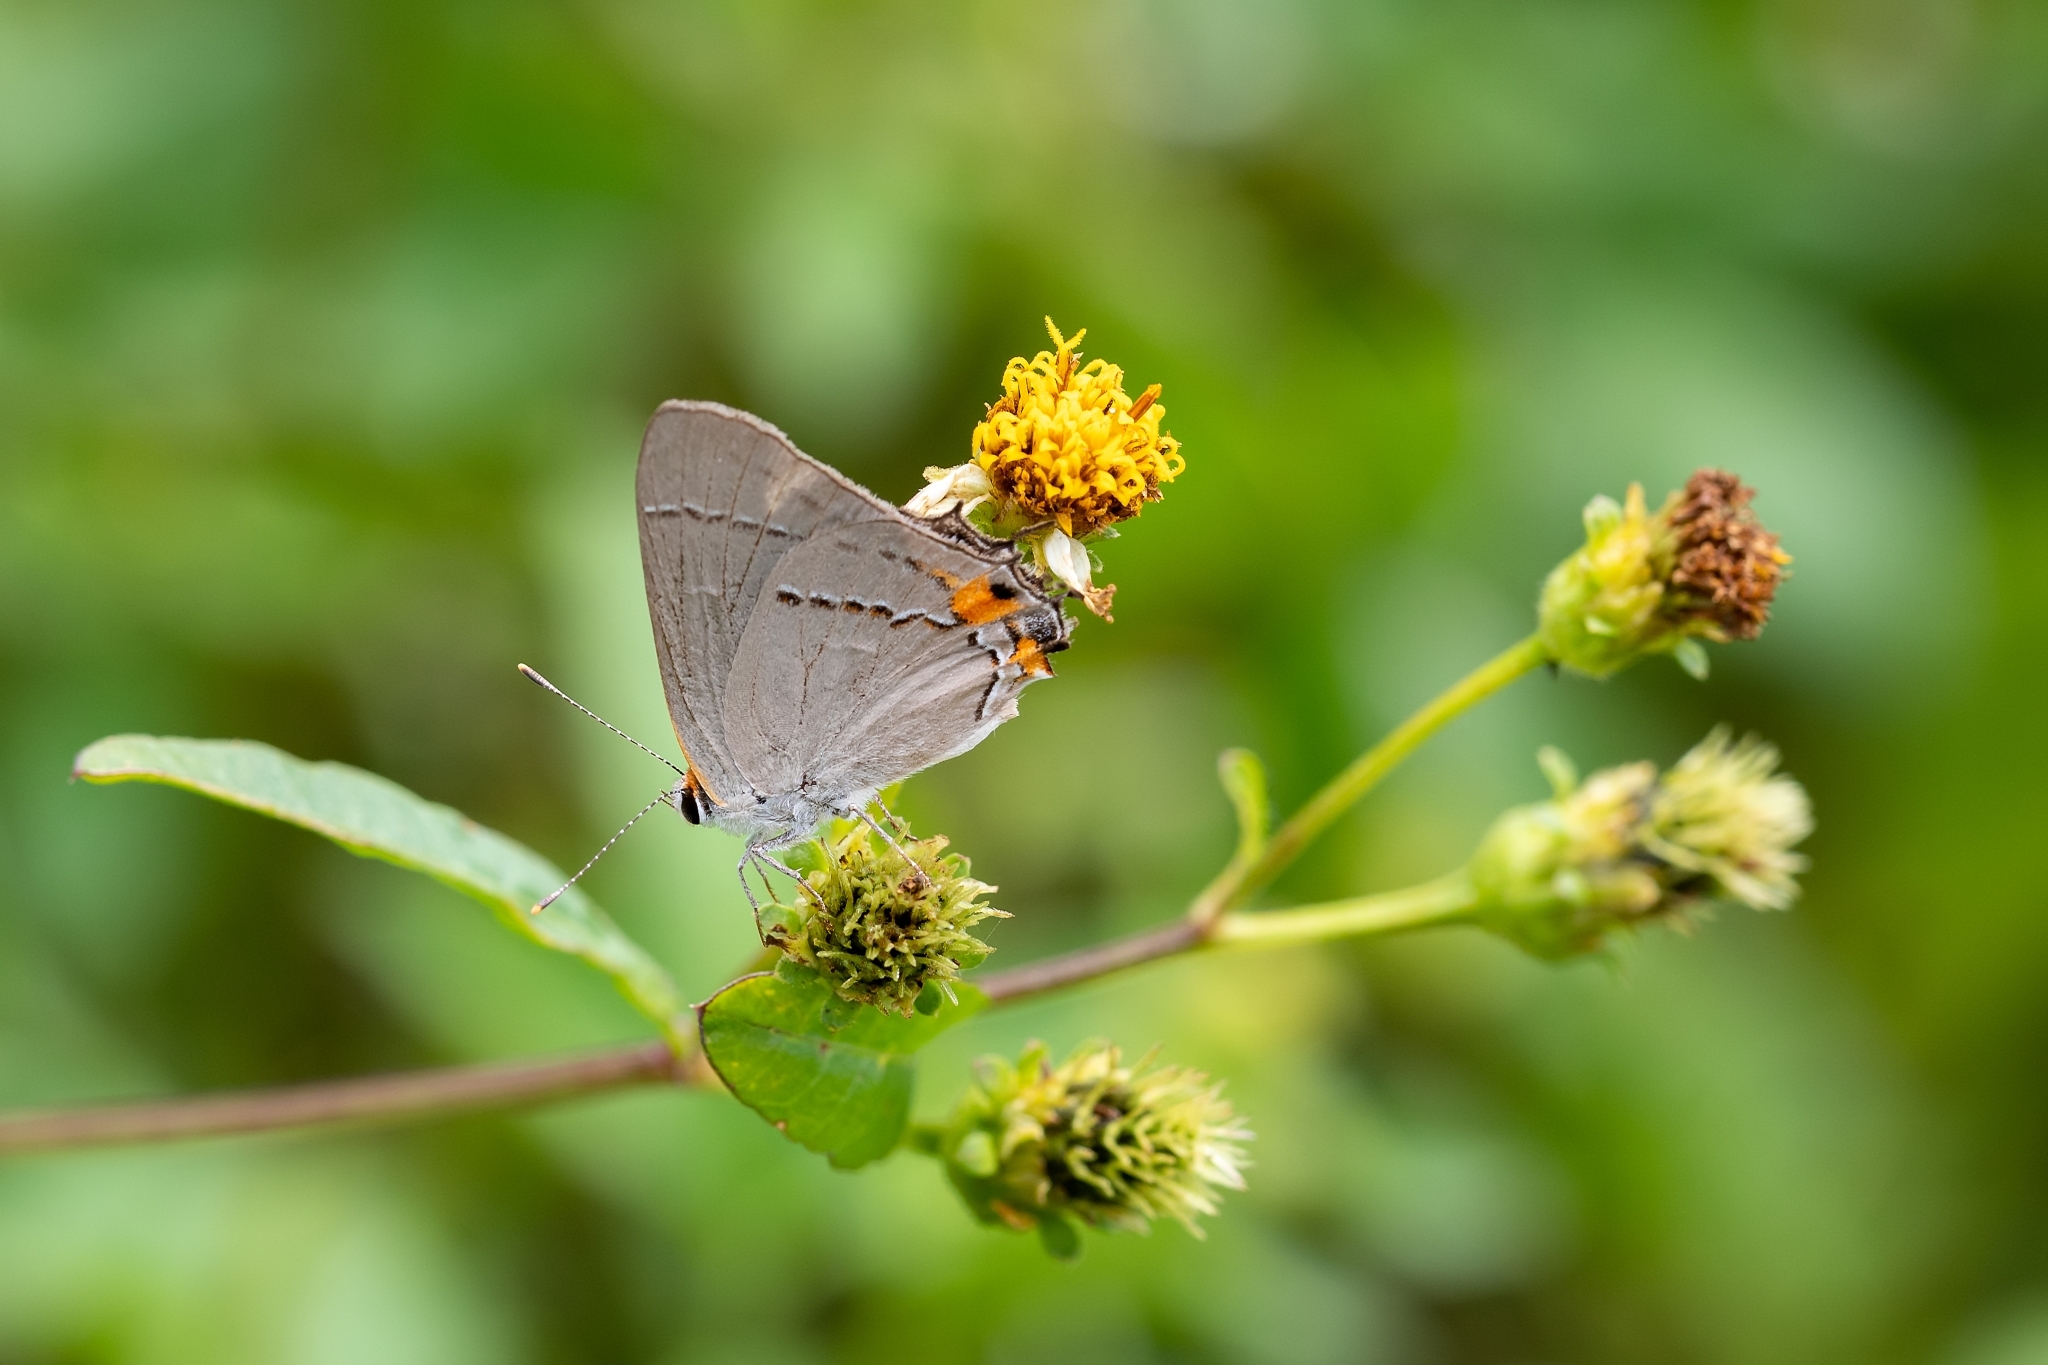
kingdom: Animalia
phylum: Arthropoda
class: Insecta
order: Lepidoptera
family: Lycaenidae
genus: Strymon
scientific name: Strymon melinus
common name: Gray hairstreak
